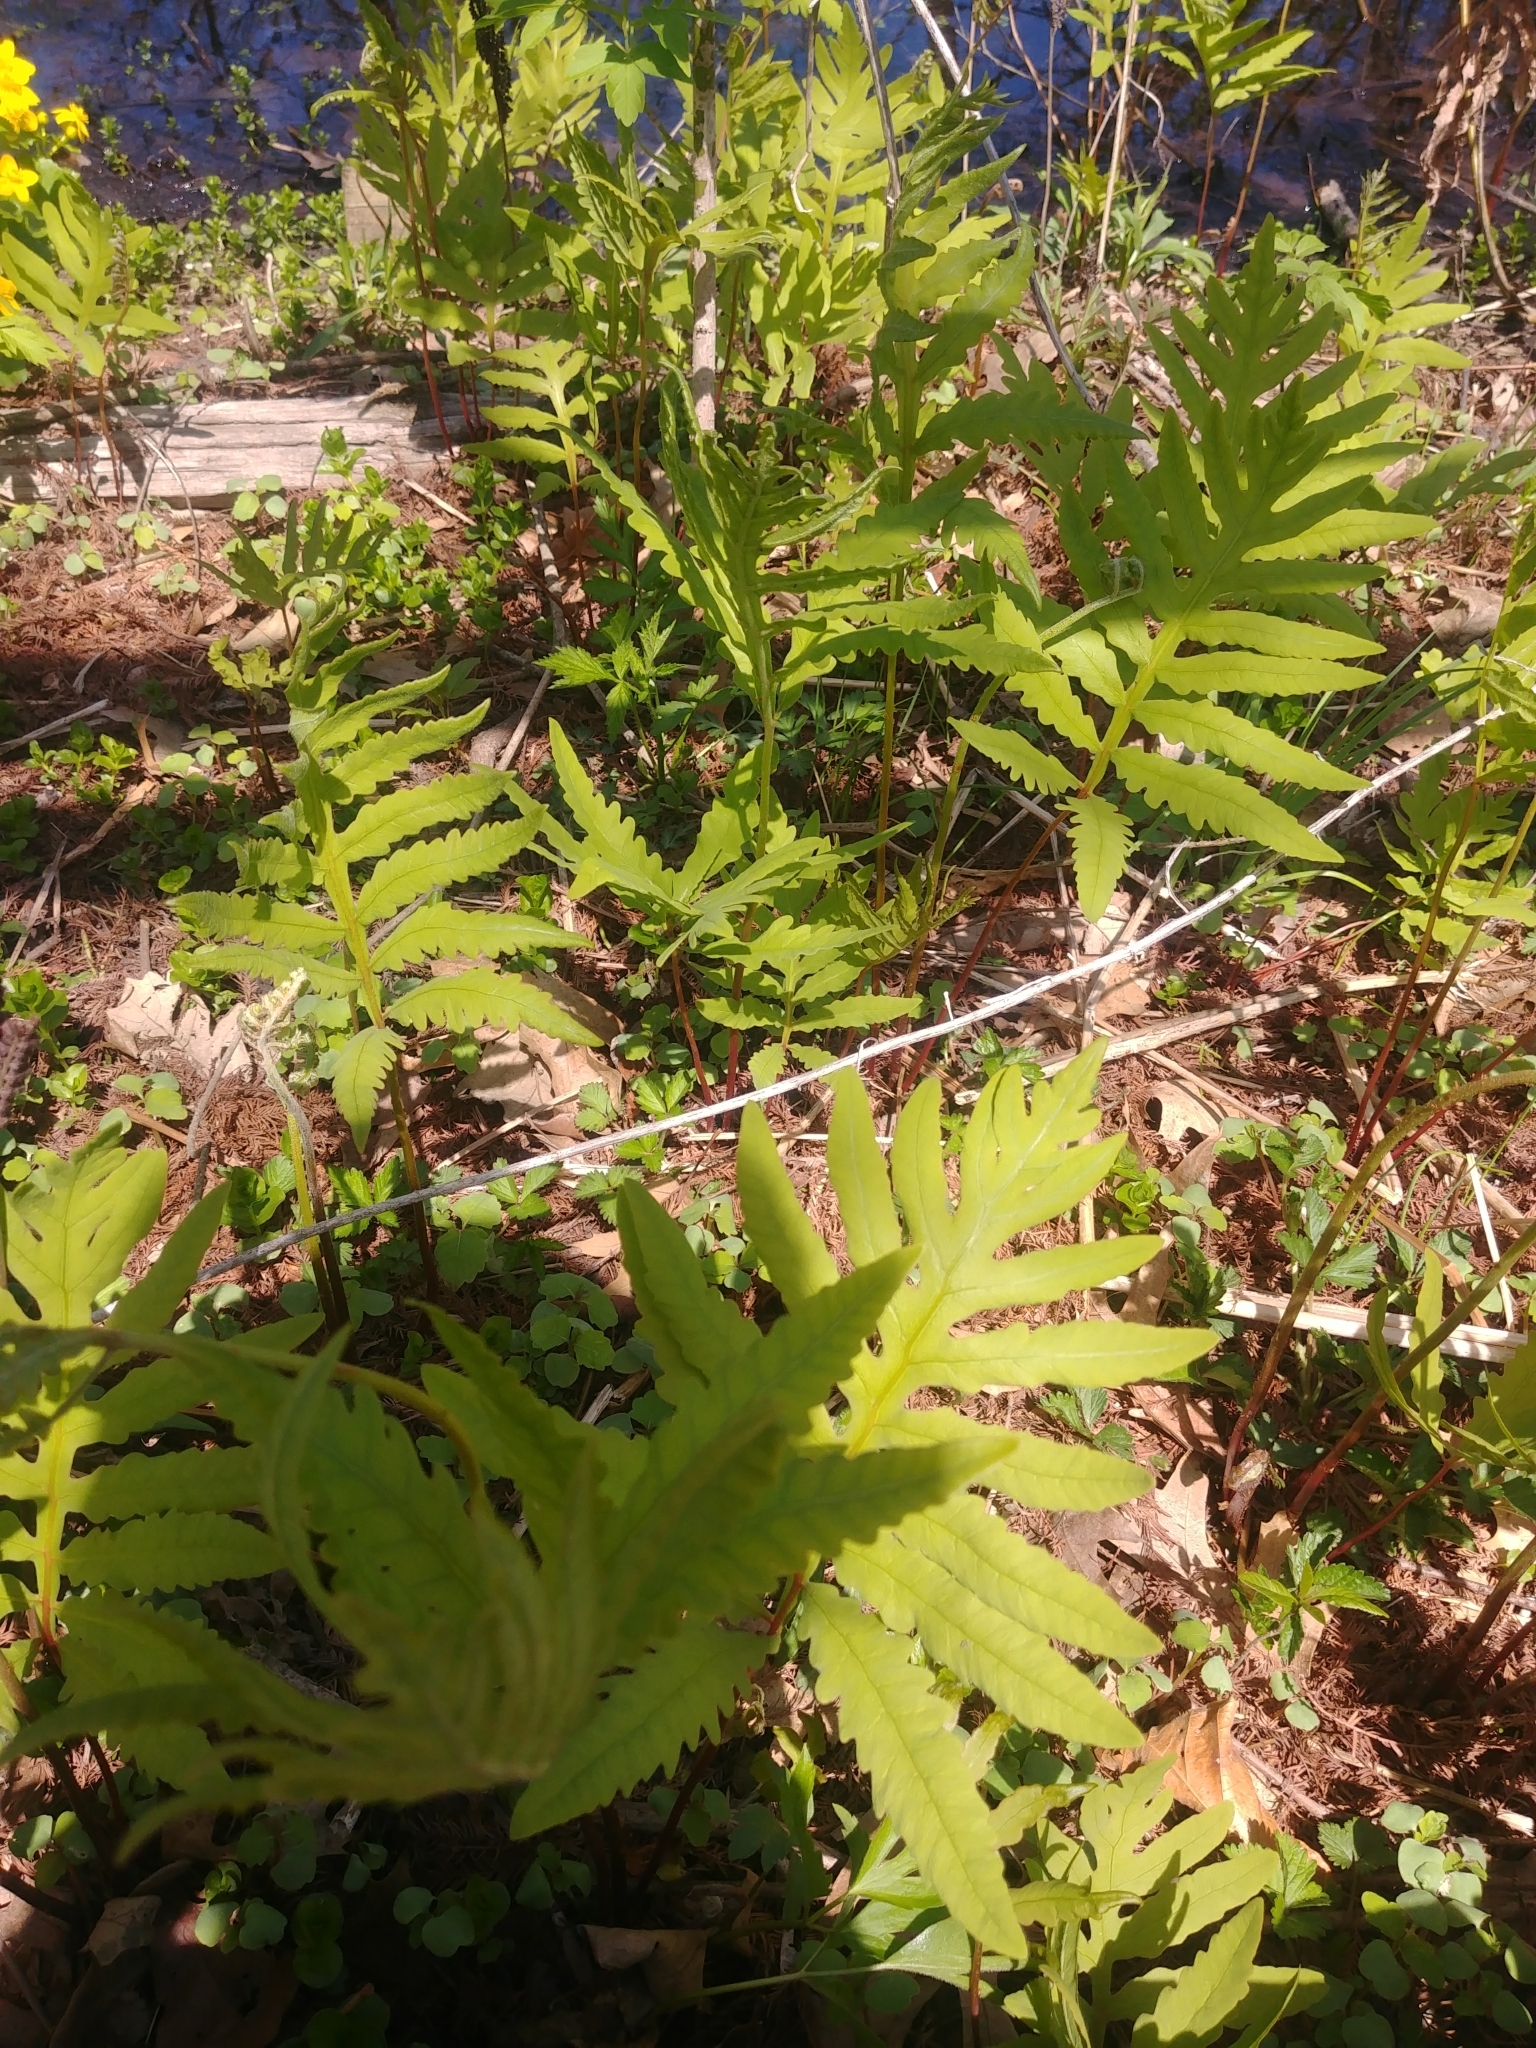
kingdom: Plantae
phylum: Tracheophyta
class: Polypodiopsida
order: Polypodiales
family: Onocleaceae
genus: Onoclea
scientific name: Onoclea sensibilis
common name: Sensitive fern
